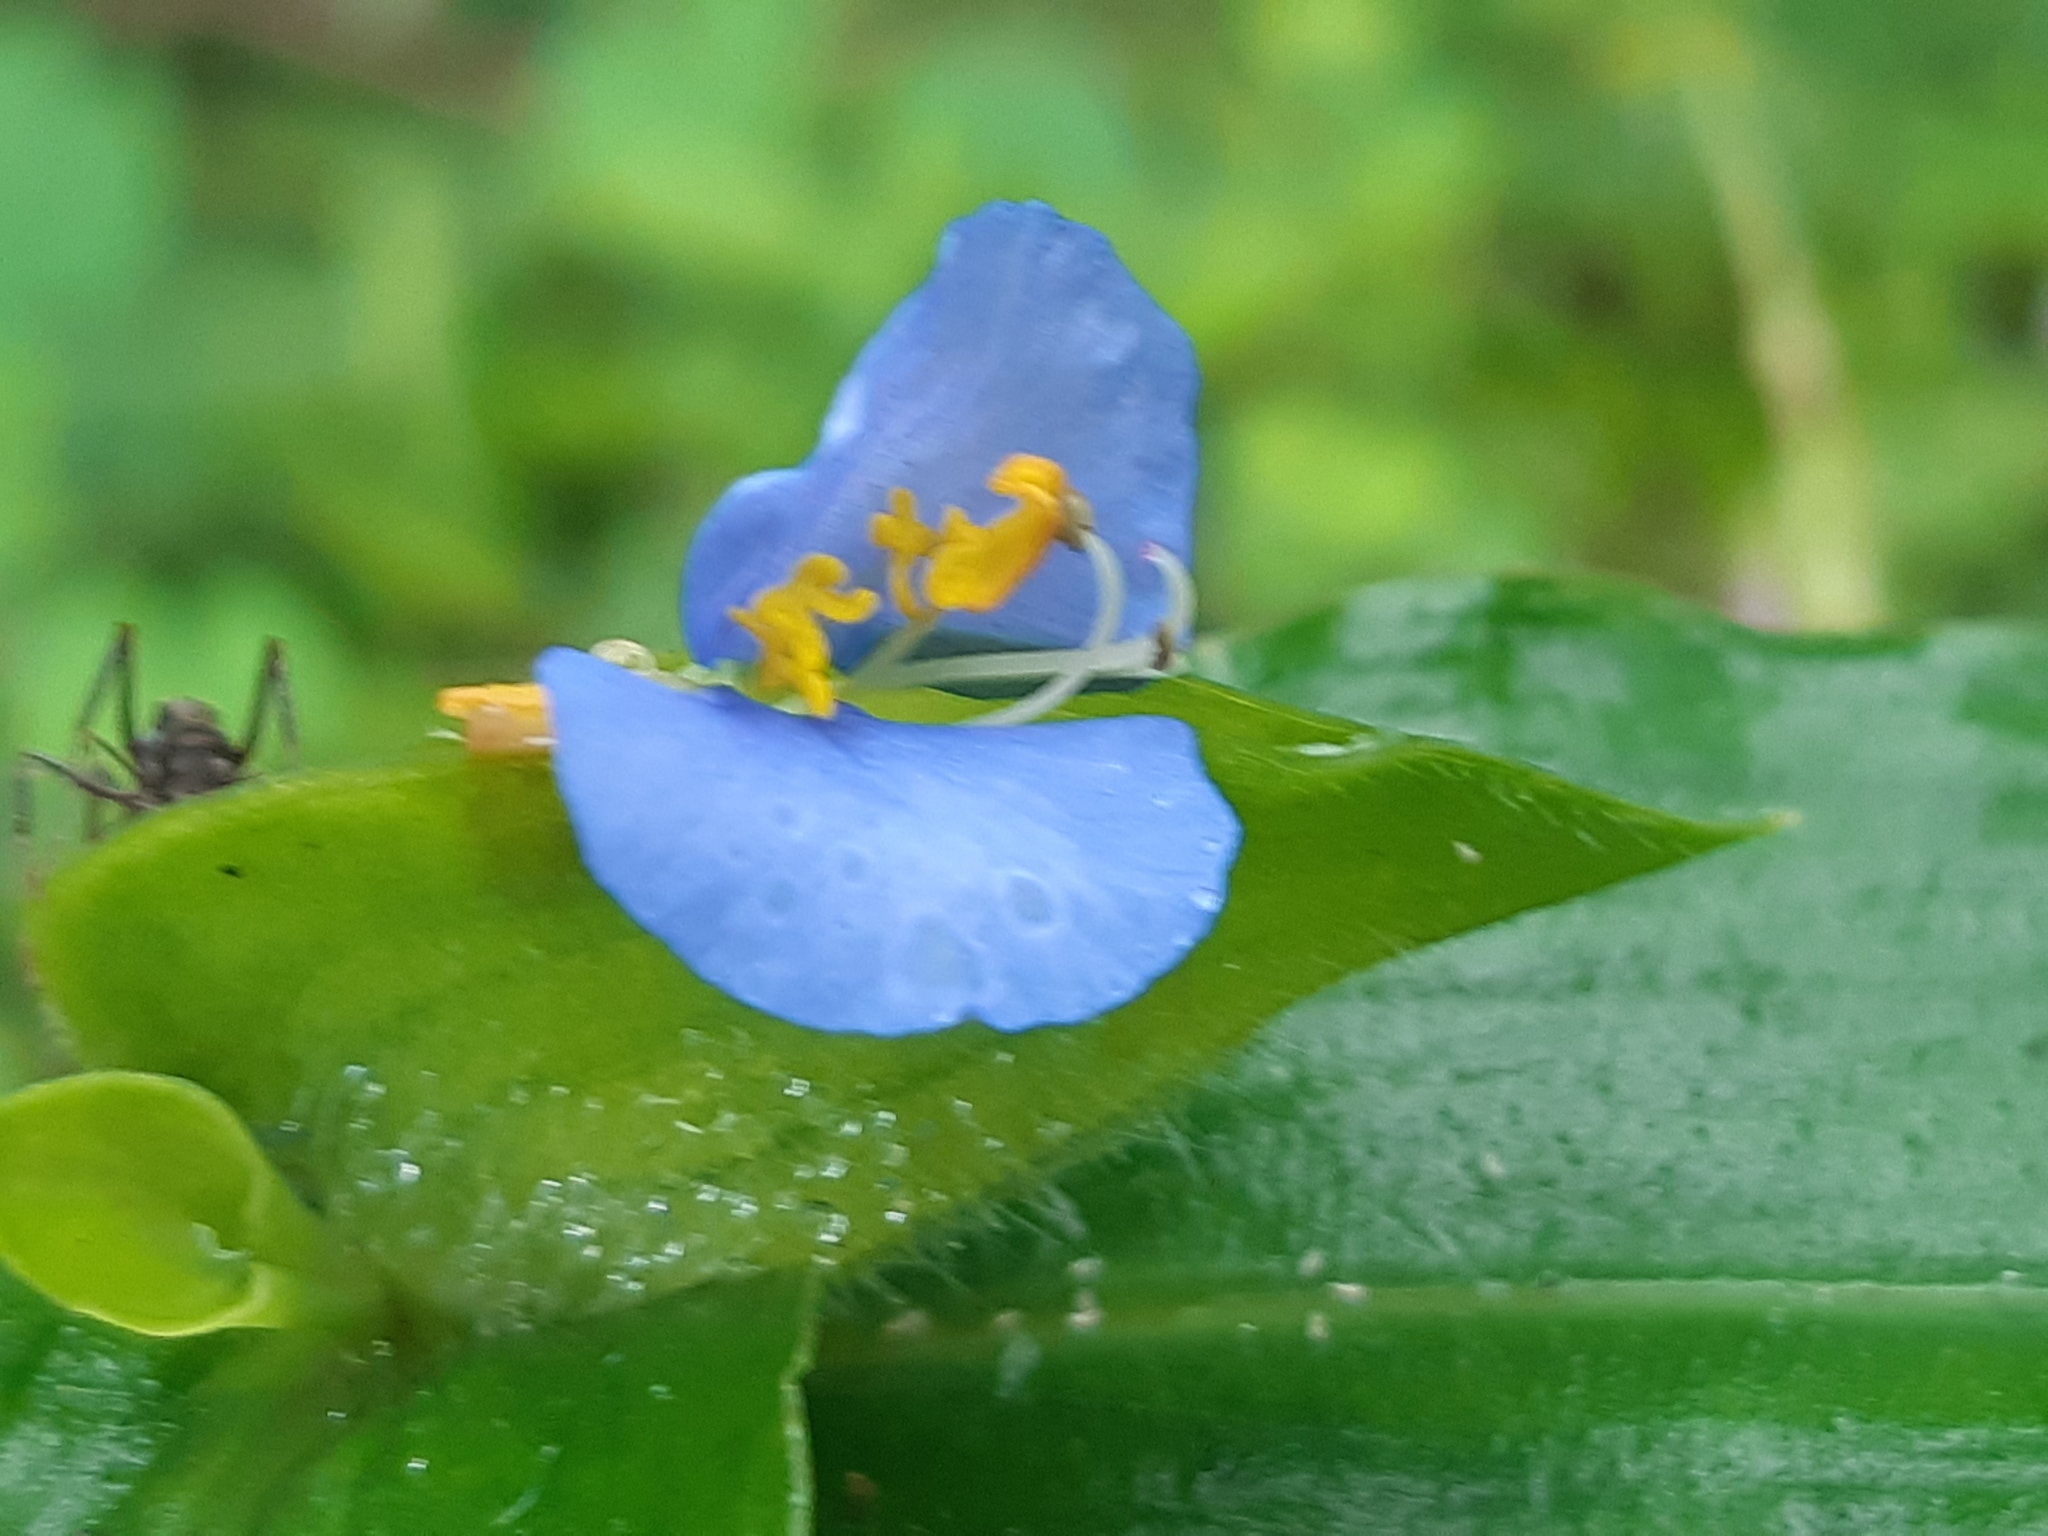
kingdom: Plantae
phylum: Tracheophyta
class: Liliopsida
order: Commelinales
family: Commelinaceae
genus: Commelina
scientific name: Commelina erecta
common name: Blousel blommetjie
